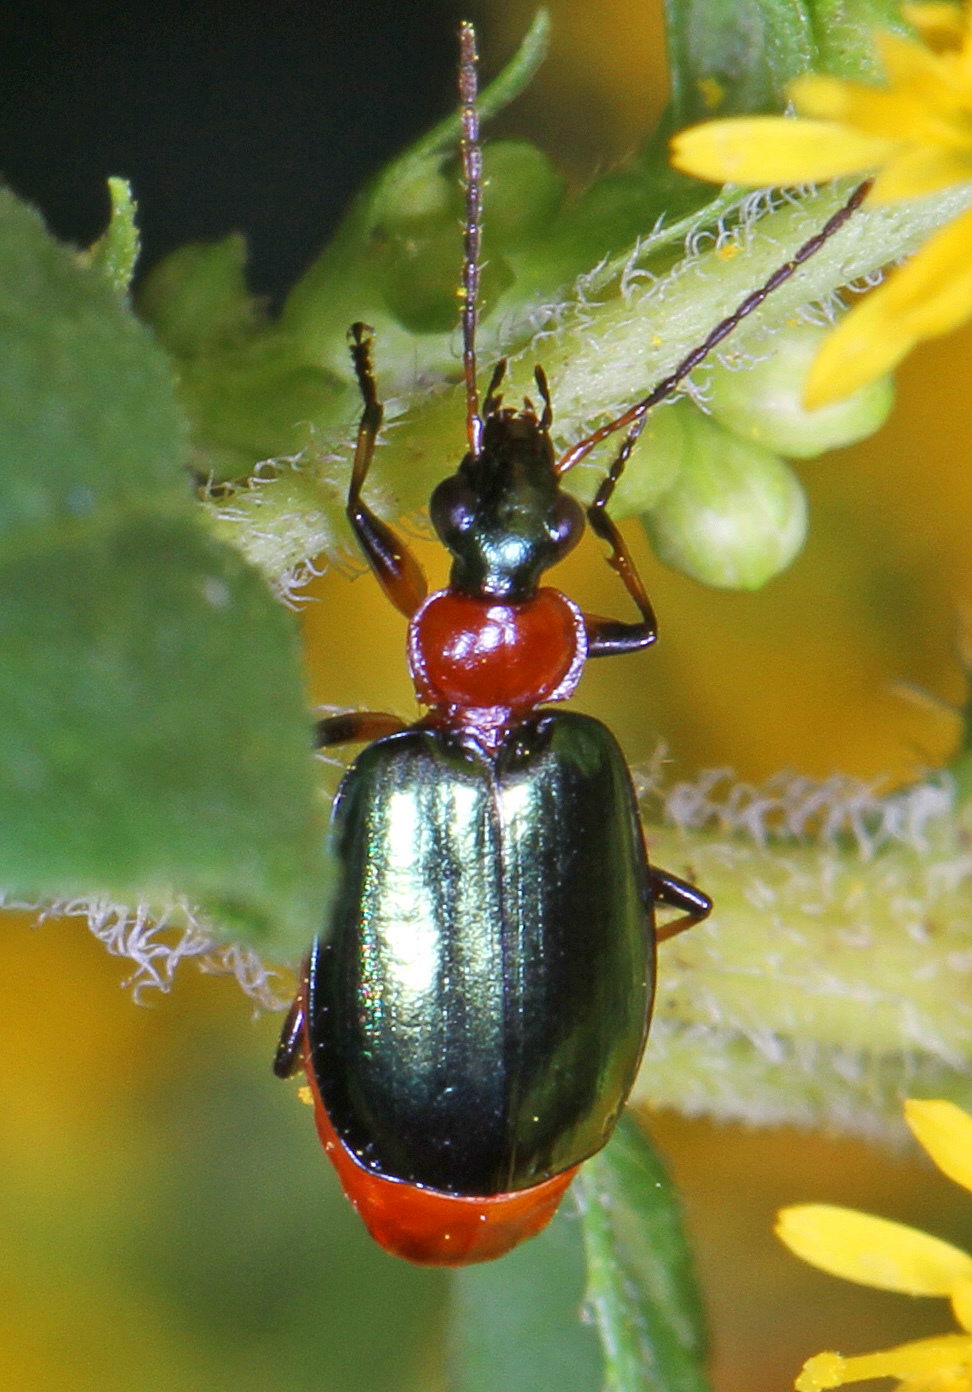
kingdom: Animalia
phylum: Arthropoda
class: Insecta
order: Coleoptera
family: Carabidae
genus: Lebia
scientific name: Lebia viridipennis
